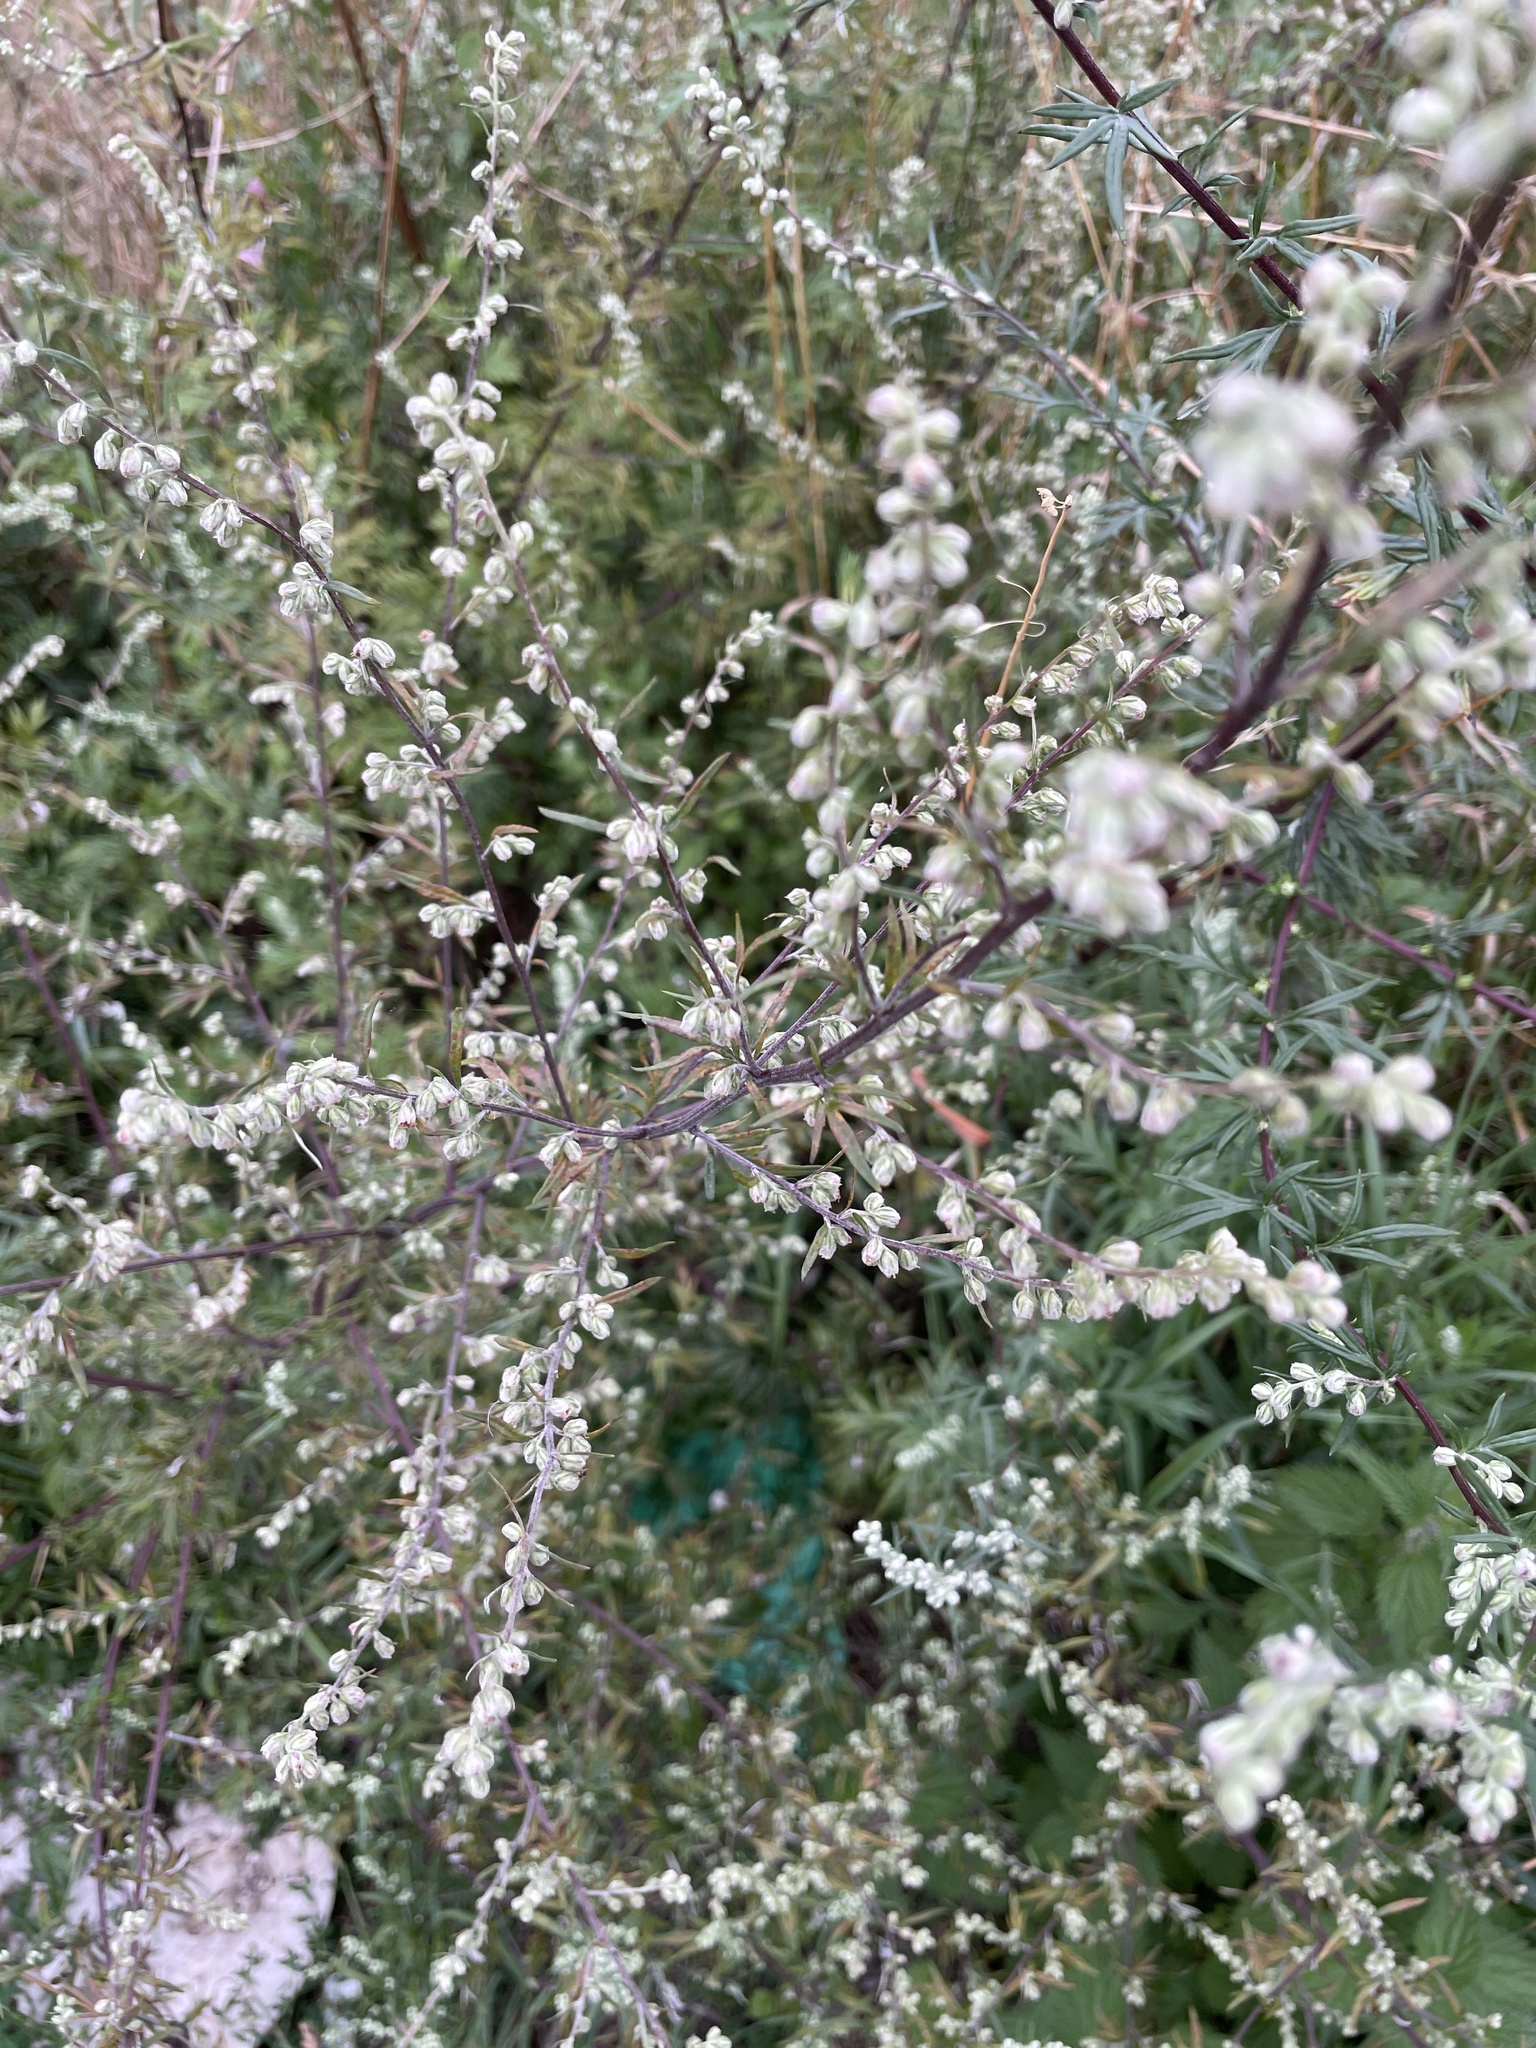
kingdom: Plantae
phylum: Tracheophyta
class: Magnoliopsida
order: Asterales
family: Asteraceae
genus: Artemisia
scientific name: Artemisia vulgaris
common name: Mugwort
